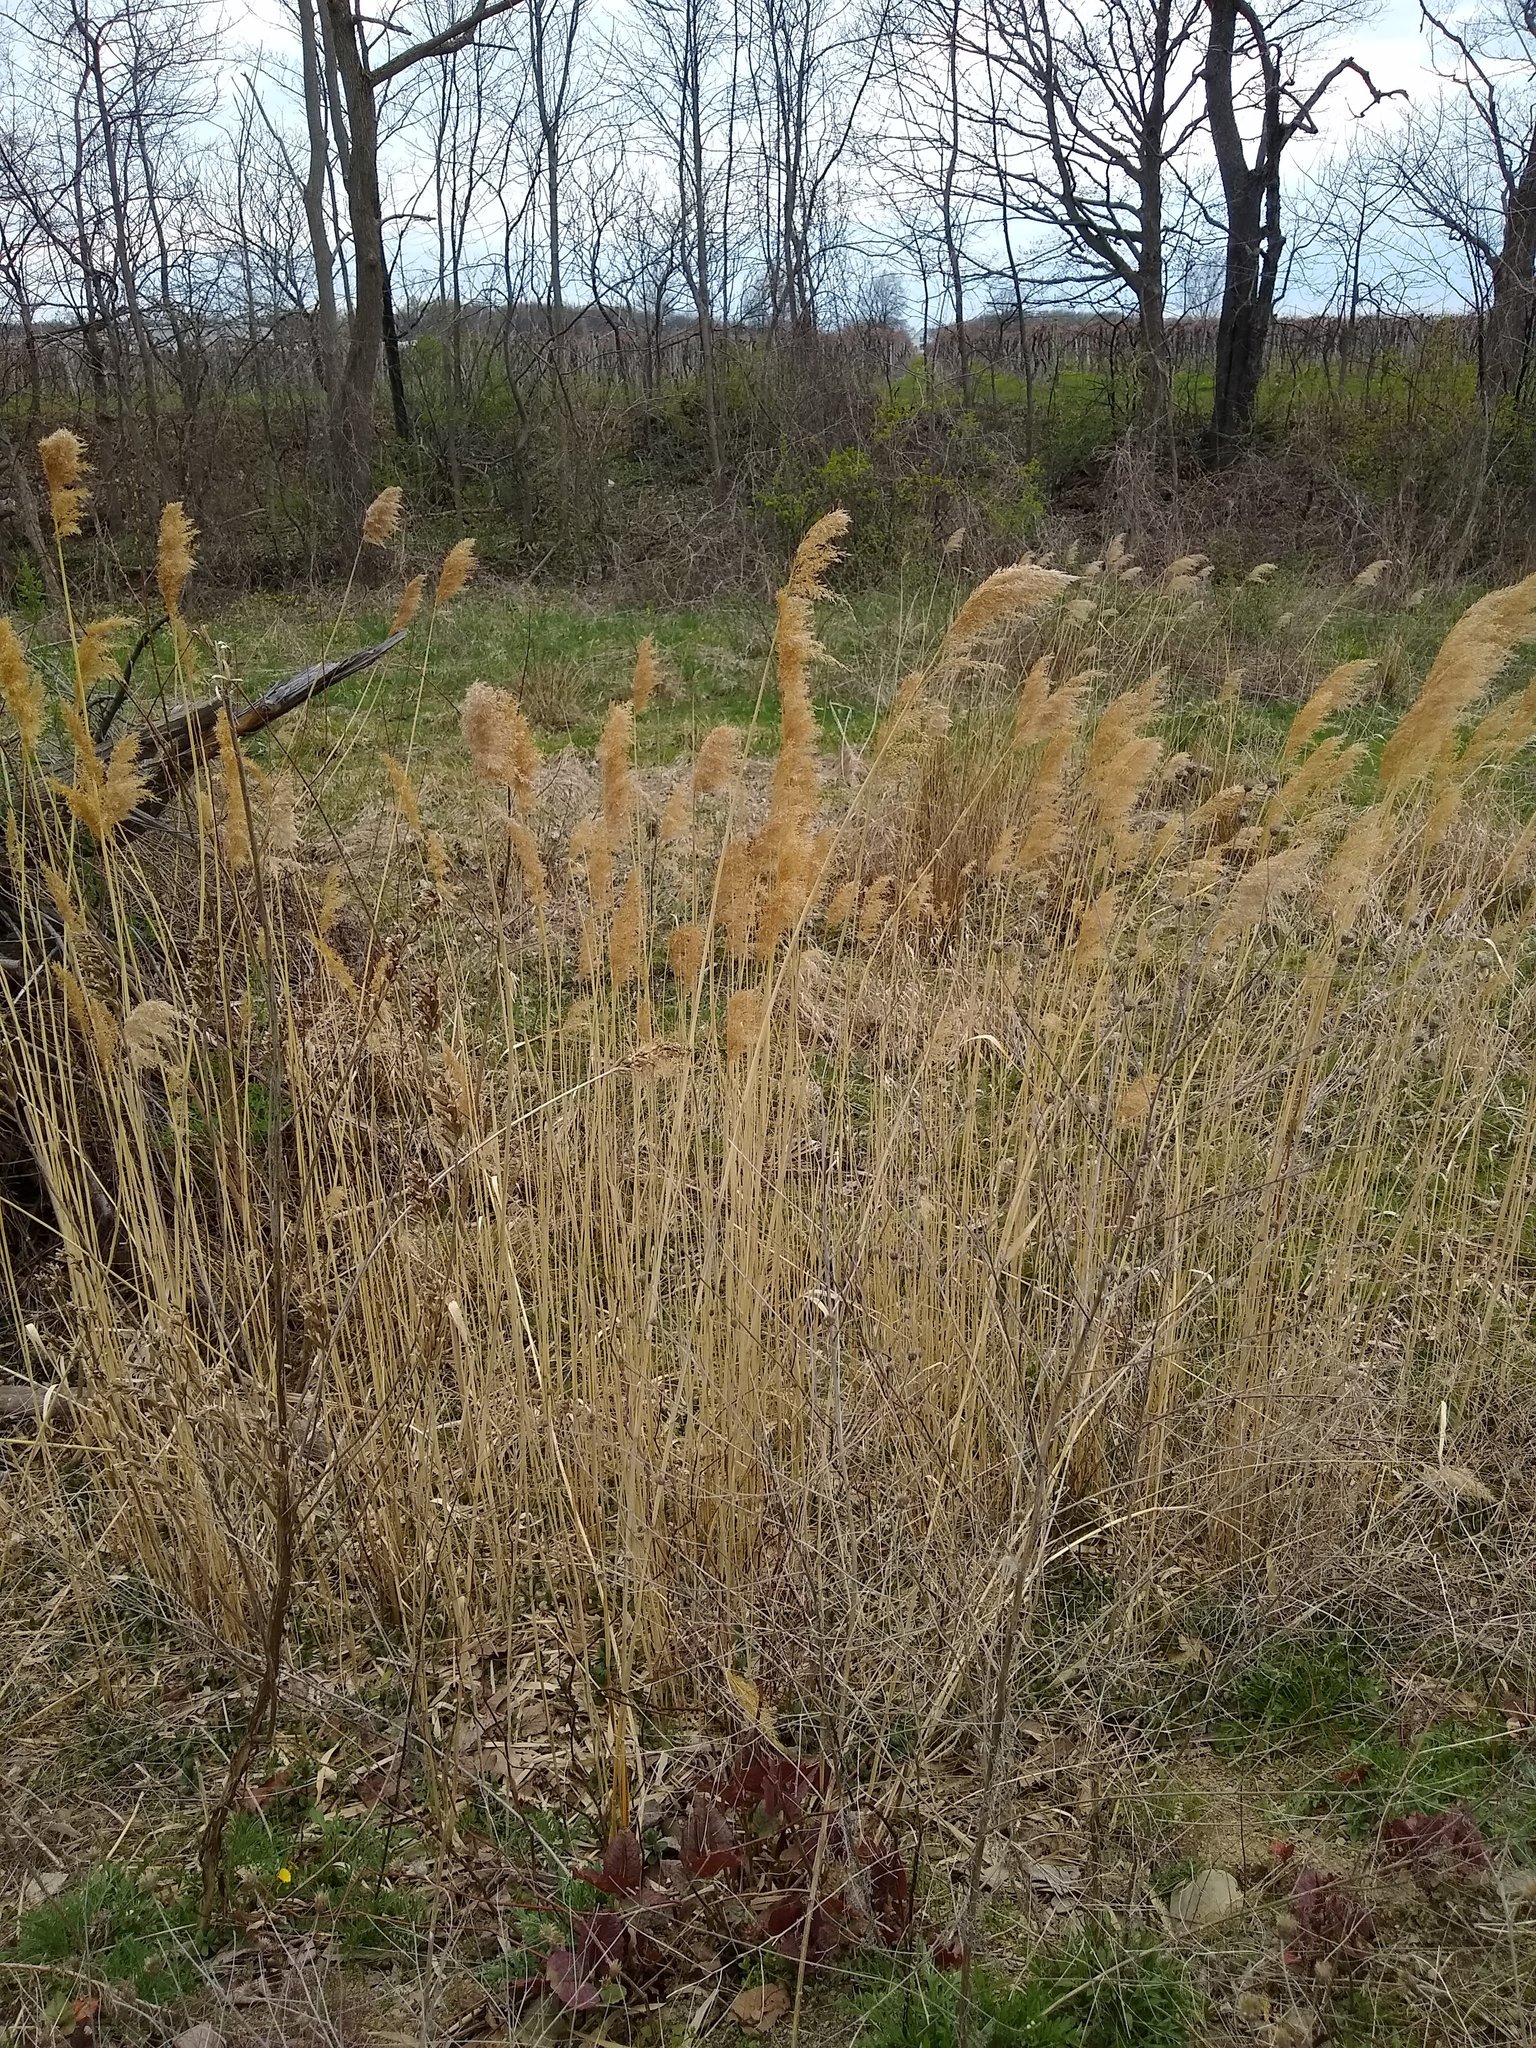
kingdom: Plantae
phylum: Tracheophyta
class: Liliopsida
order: Poales
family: Poaceae
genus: Phragmites
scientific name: Phragmites australis
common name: Common reed
